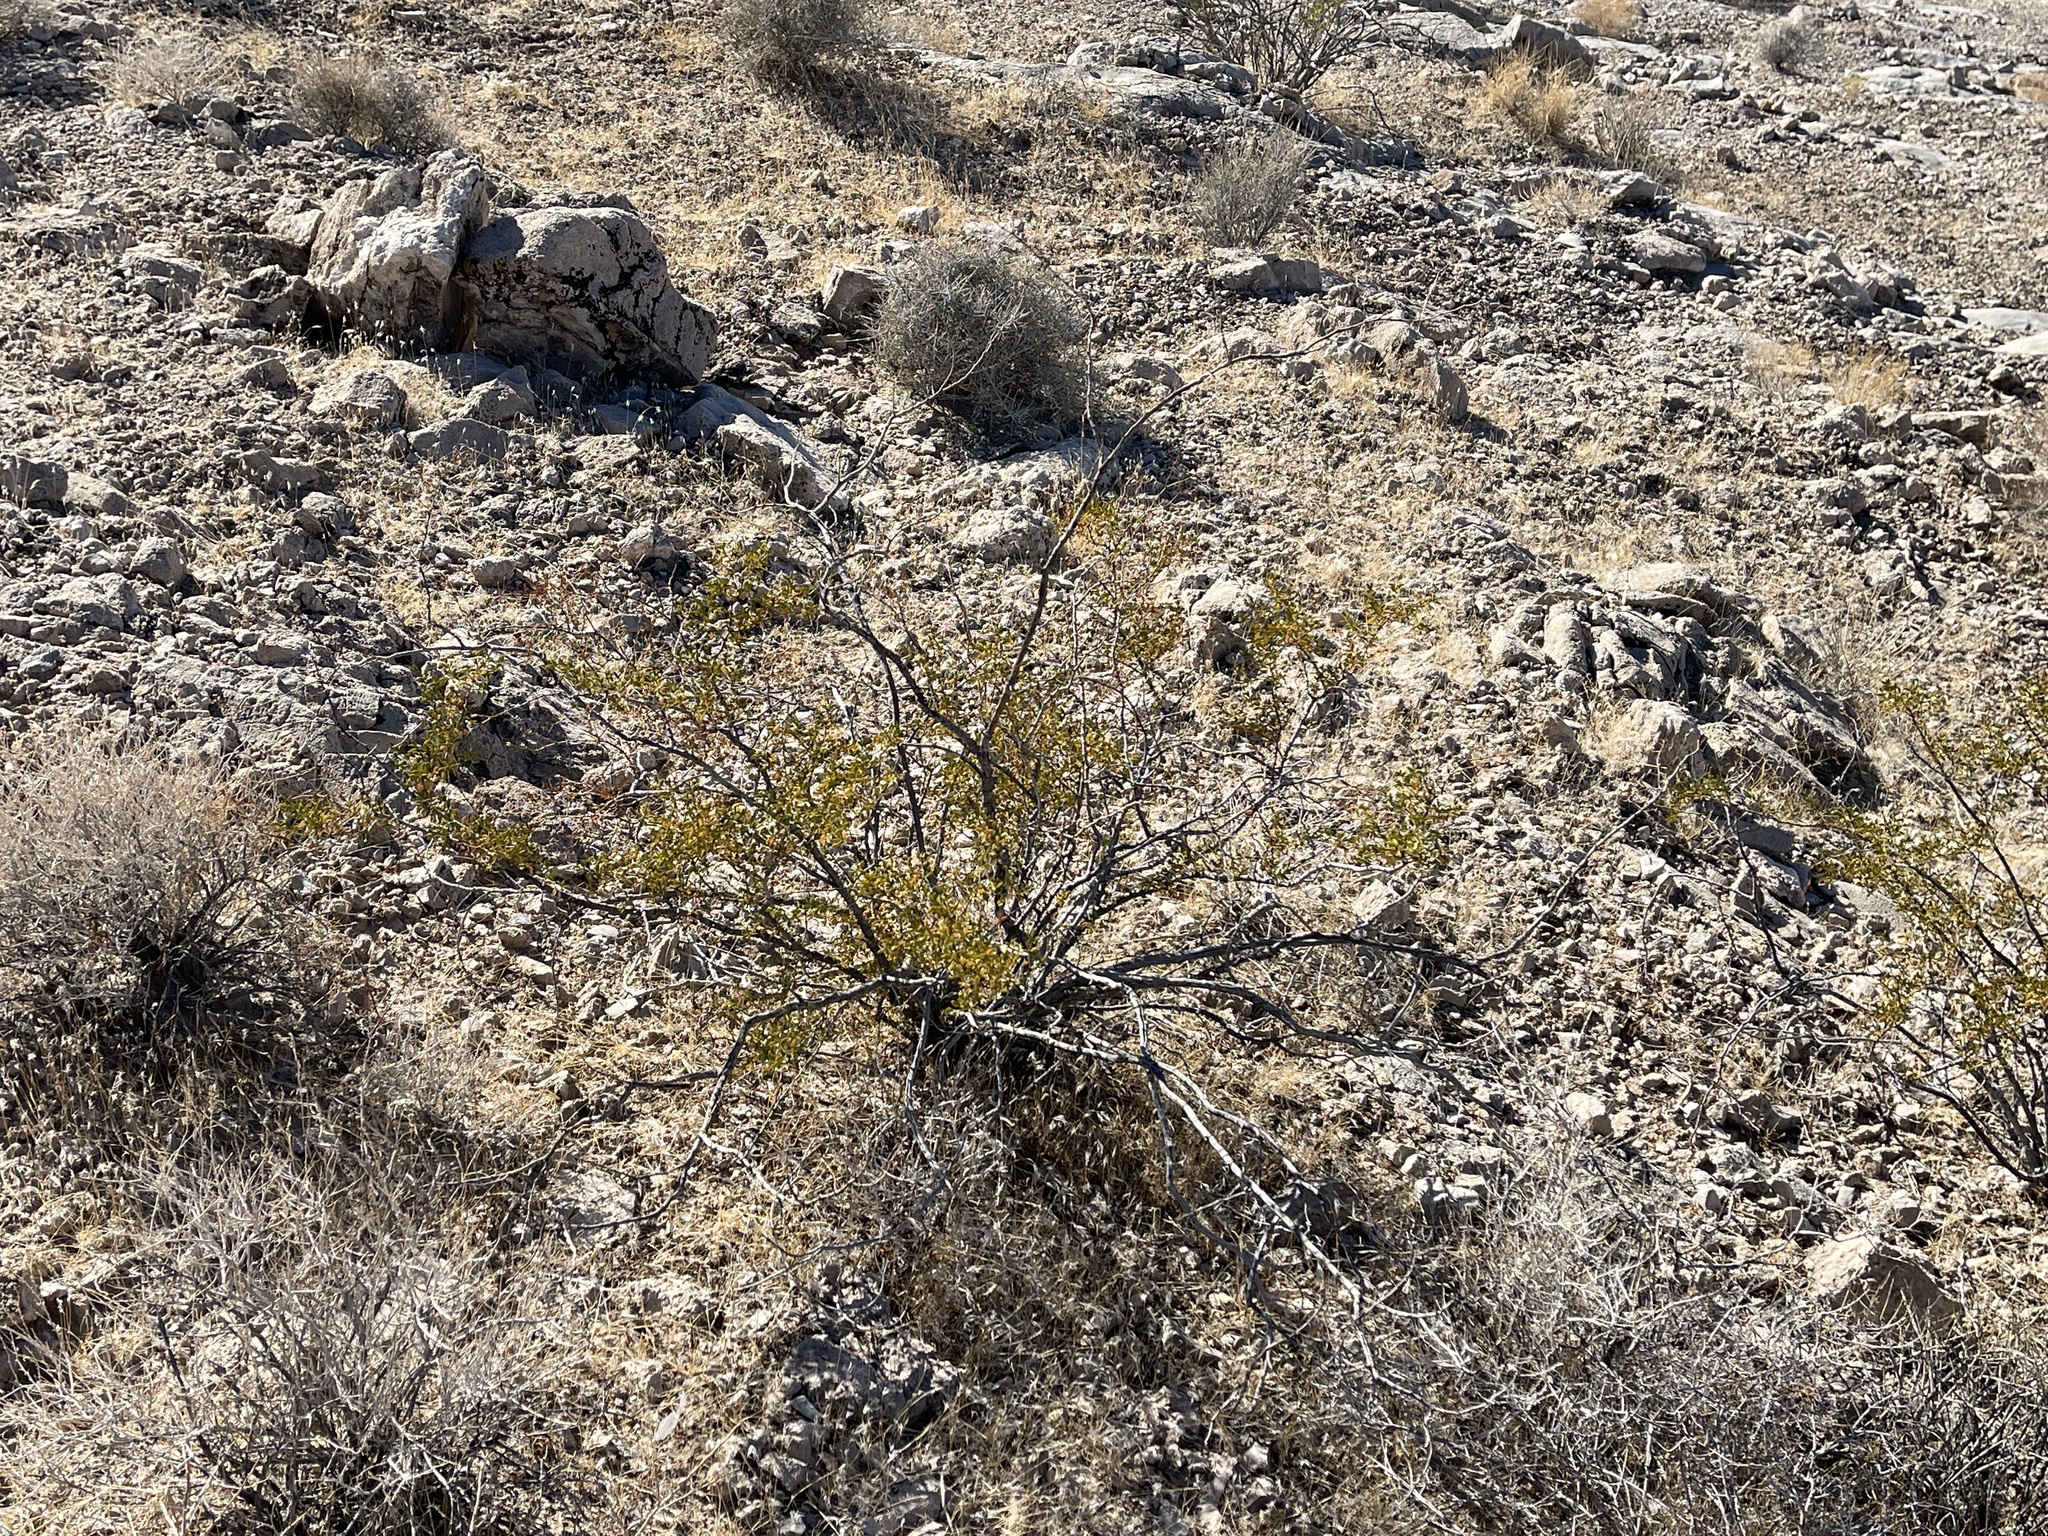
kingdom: Plantae
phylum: Tracheophyta
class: Magnoliopsida
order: Zygophyllales
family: Zygophyllaceae
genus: Larrea
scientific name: Larrea tridentata
